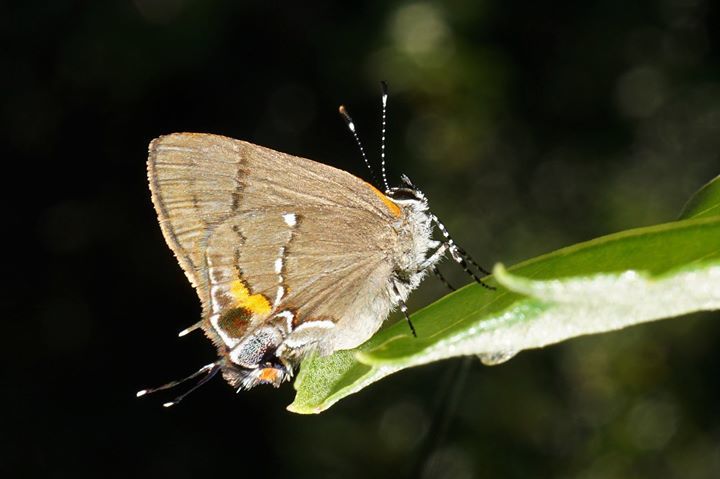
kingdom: Animalia
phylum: Arthropoda
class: Insecta
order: Lepidoptera
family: Lycaenidae
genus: Thecla
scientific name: Thecla angelia
